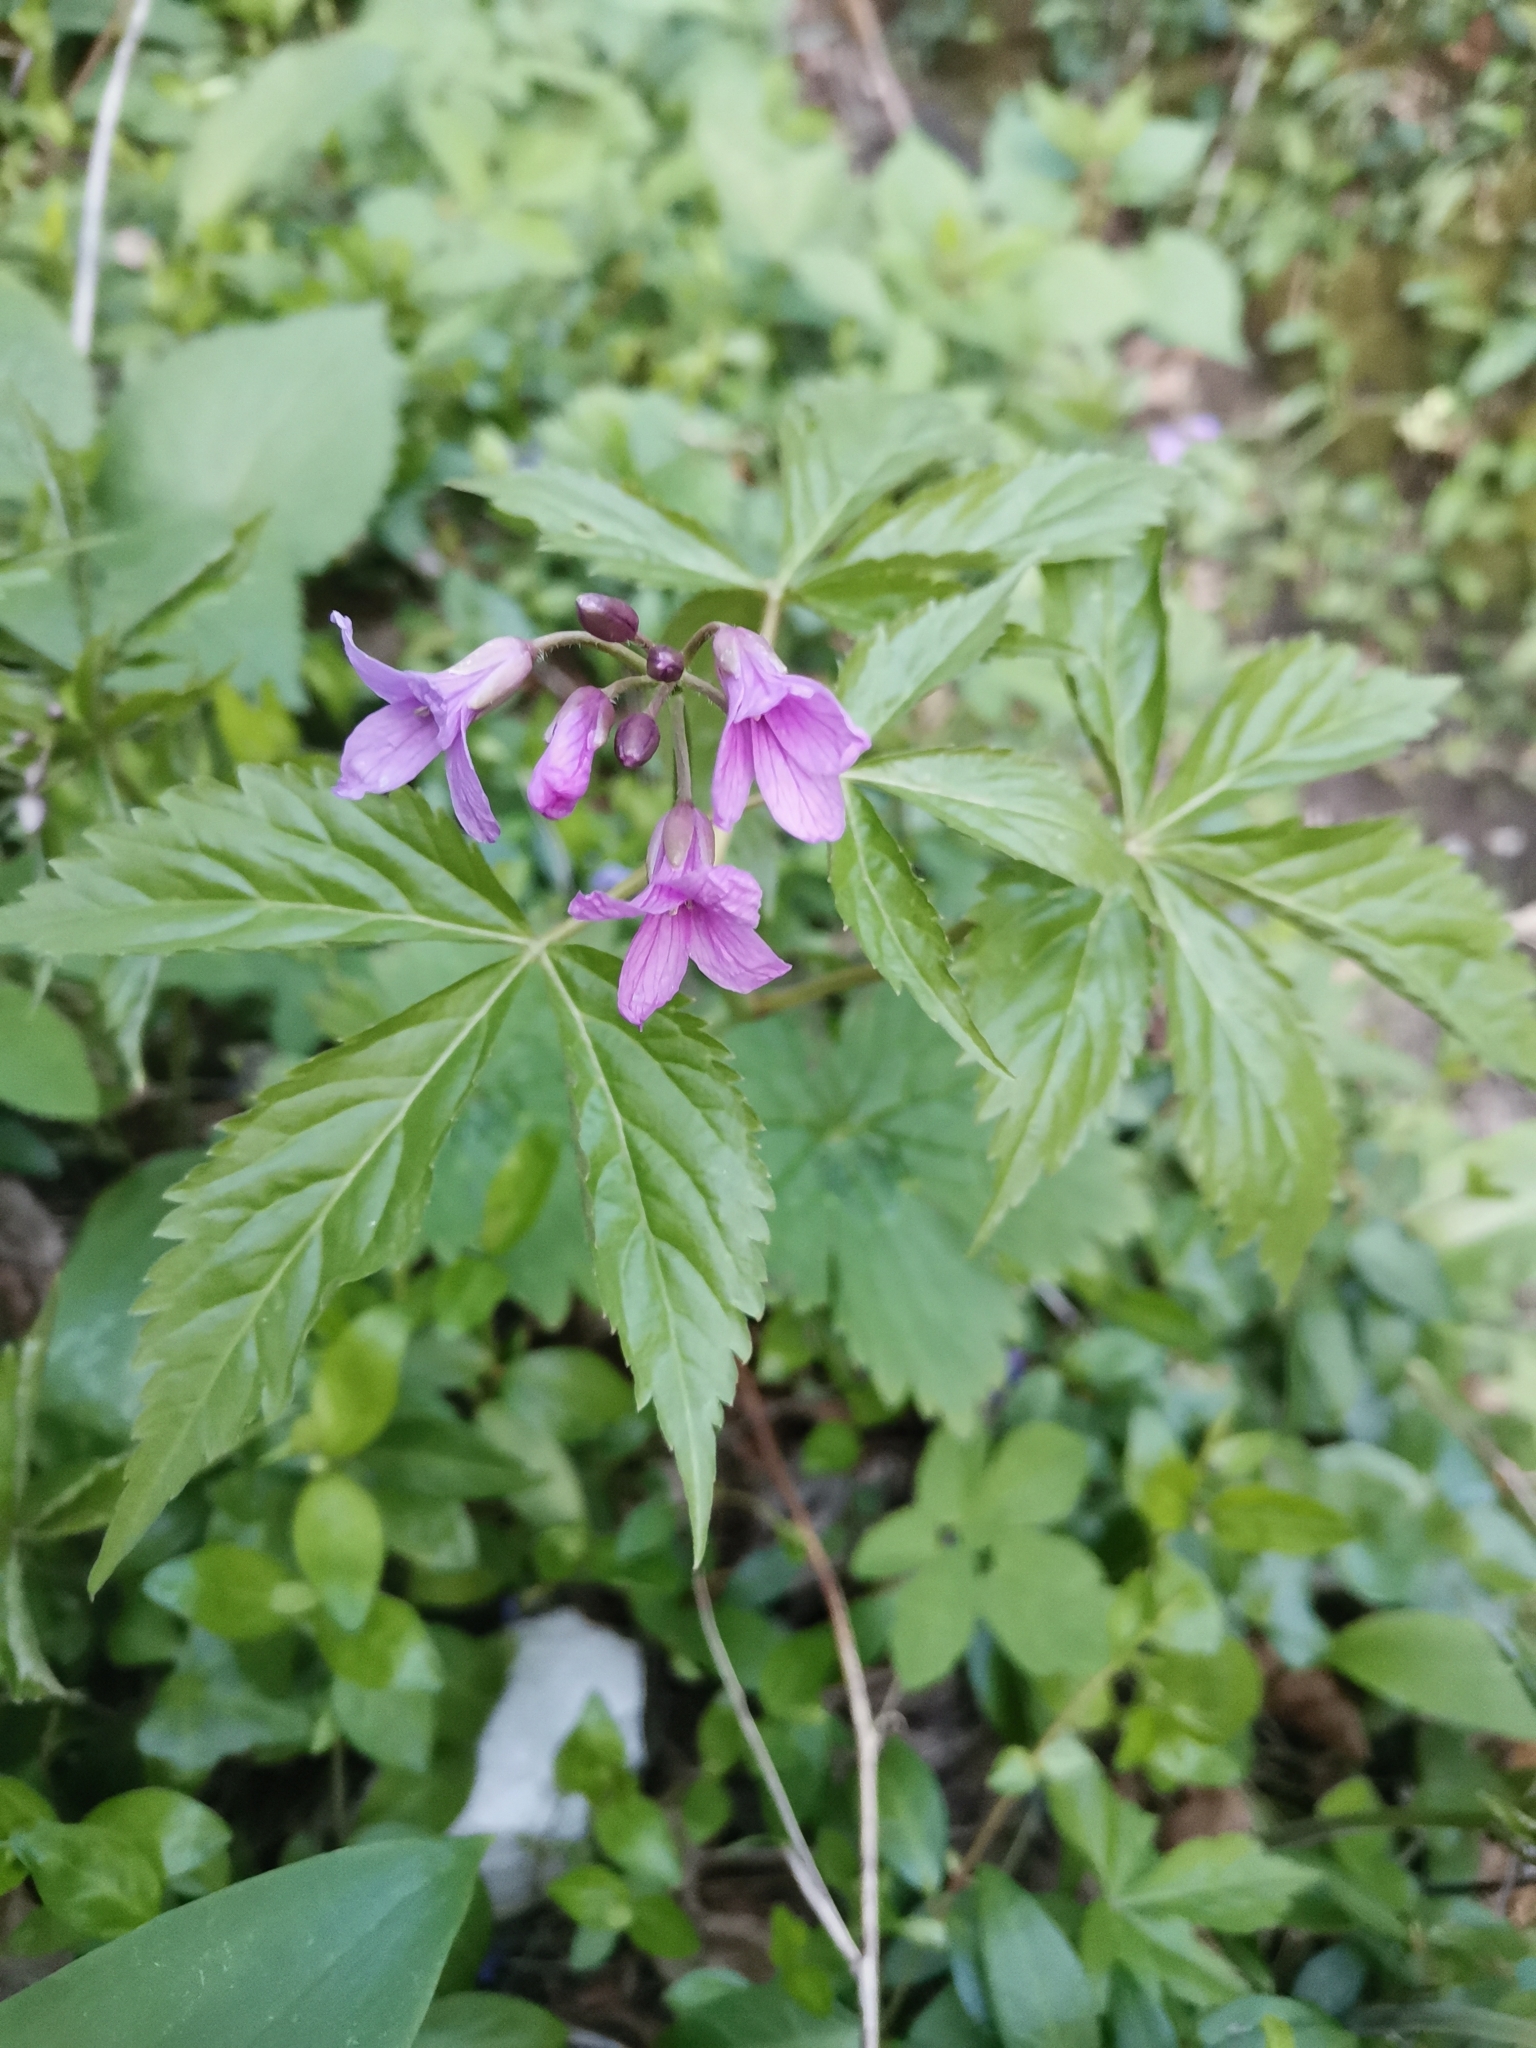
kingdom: Plantae
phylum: Tracheophyta
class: Magnoliopsida
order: Brassicales
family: Brassicaceae
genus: Cardamine
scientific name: Cardamine pentaphyllos
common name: Five-leaflet bitter-cress
